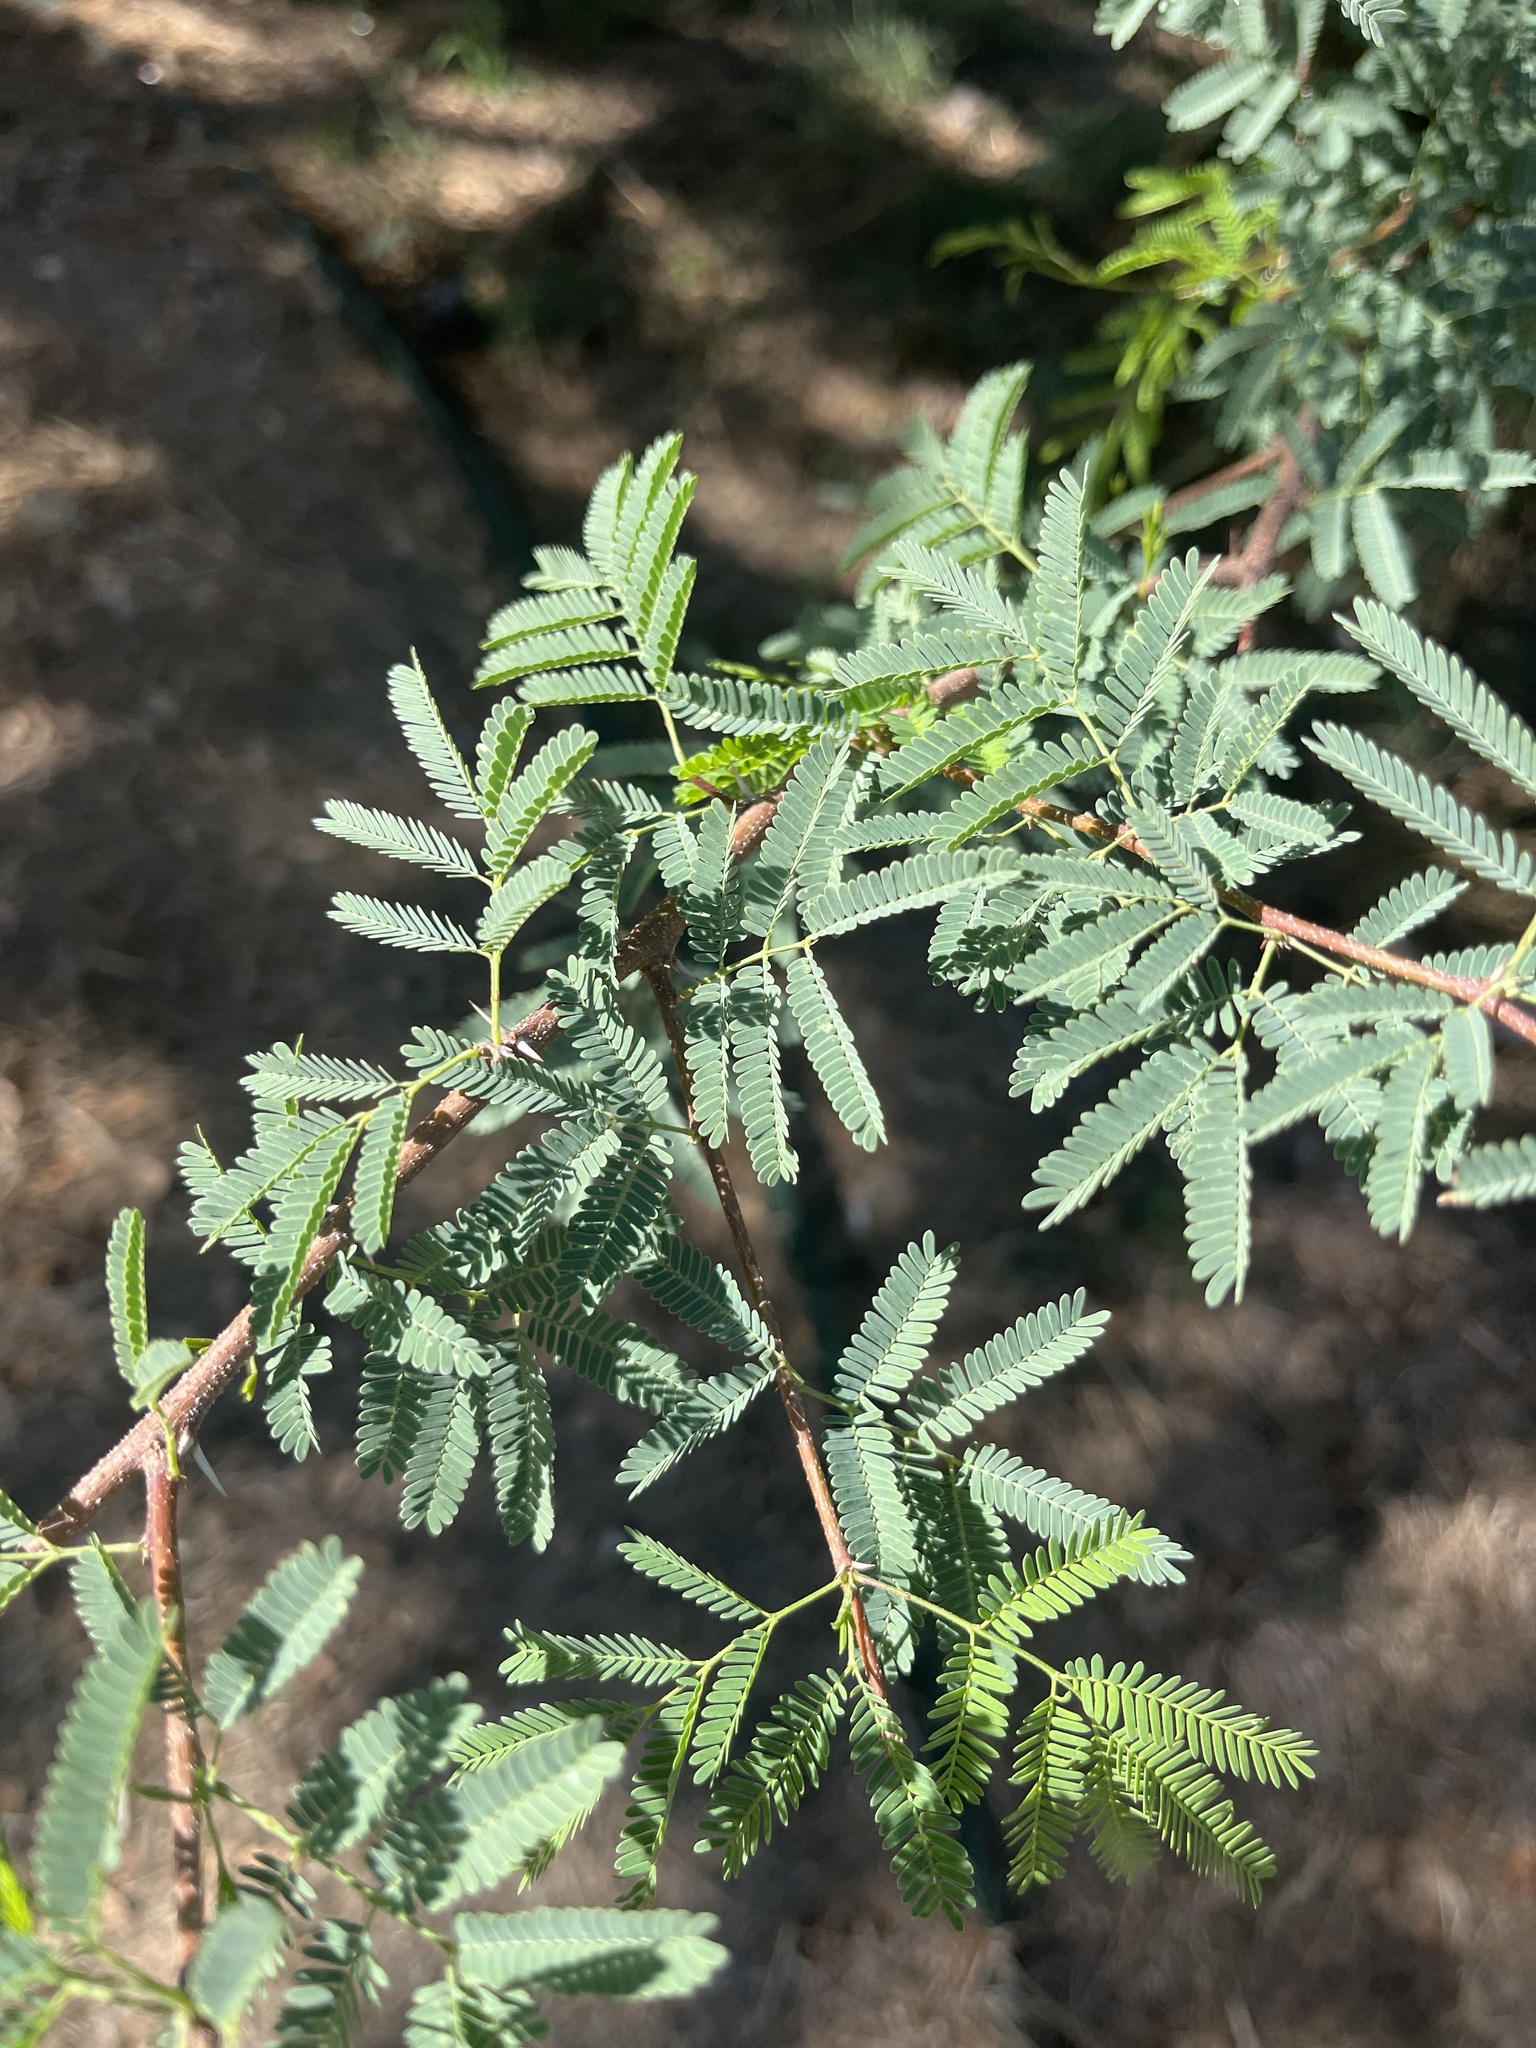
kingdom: Plantae
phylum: Tracheophyta
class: Magnoliopsida
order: Fabales
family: Fabaceae
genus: Vachellia
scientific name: Vachellia farnesiana
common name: Sweet acacia
